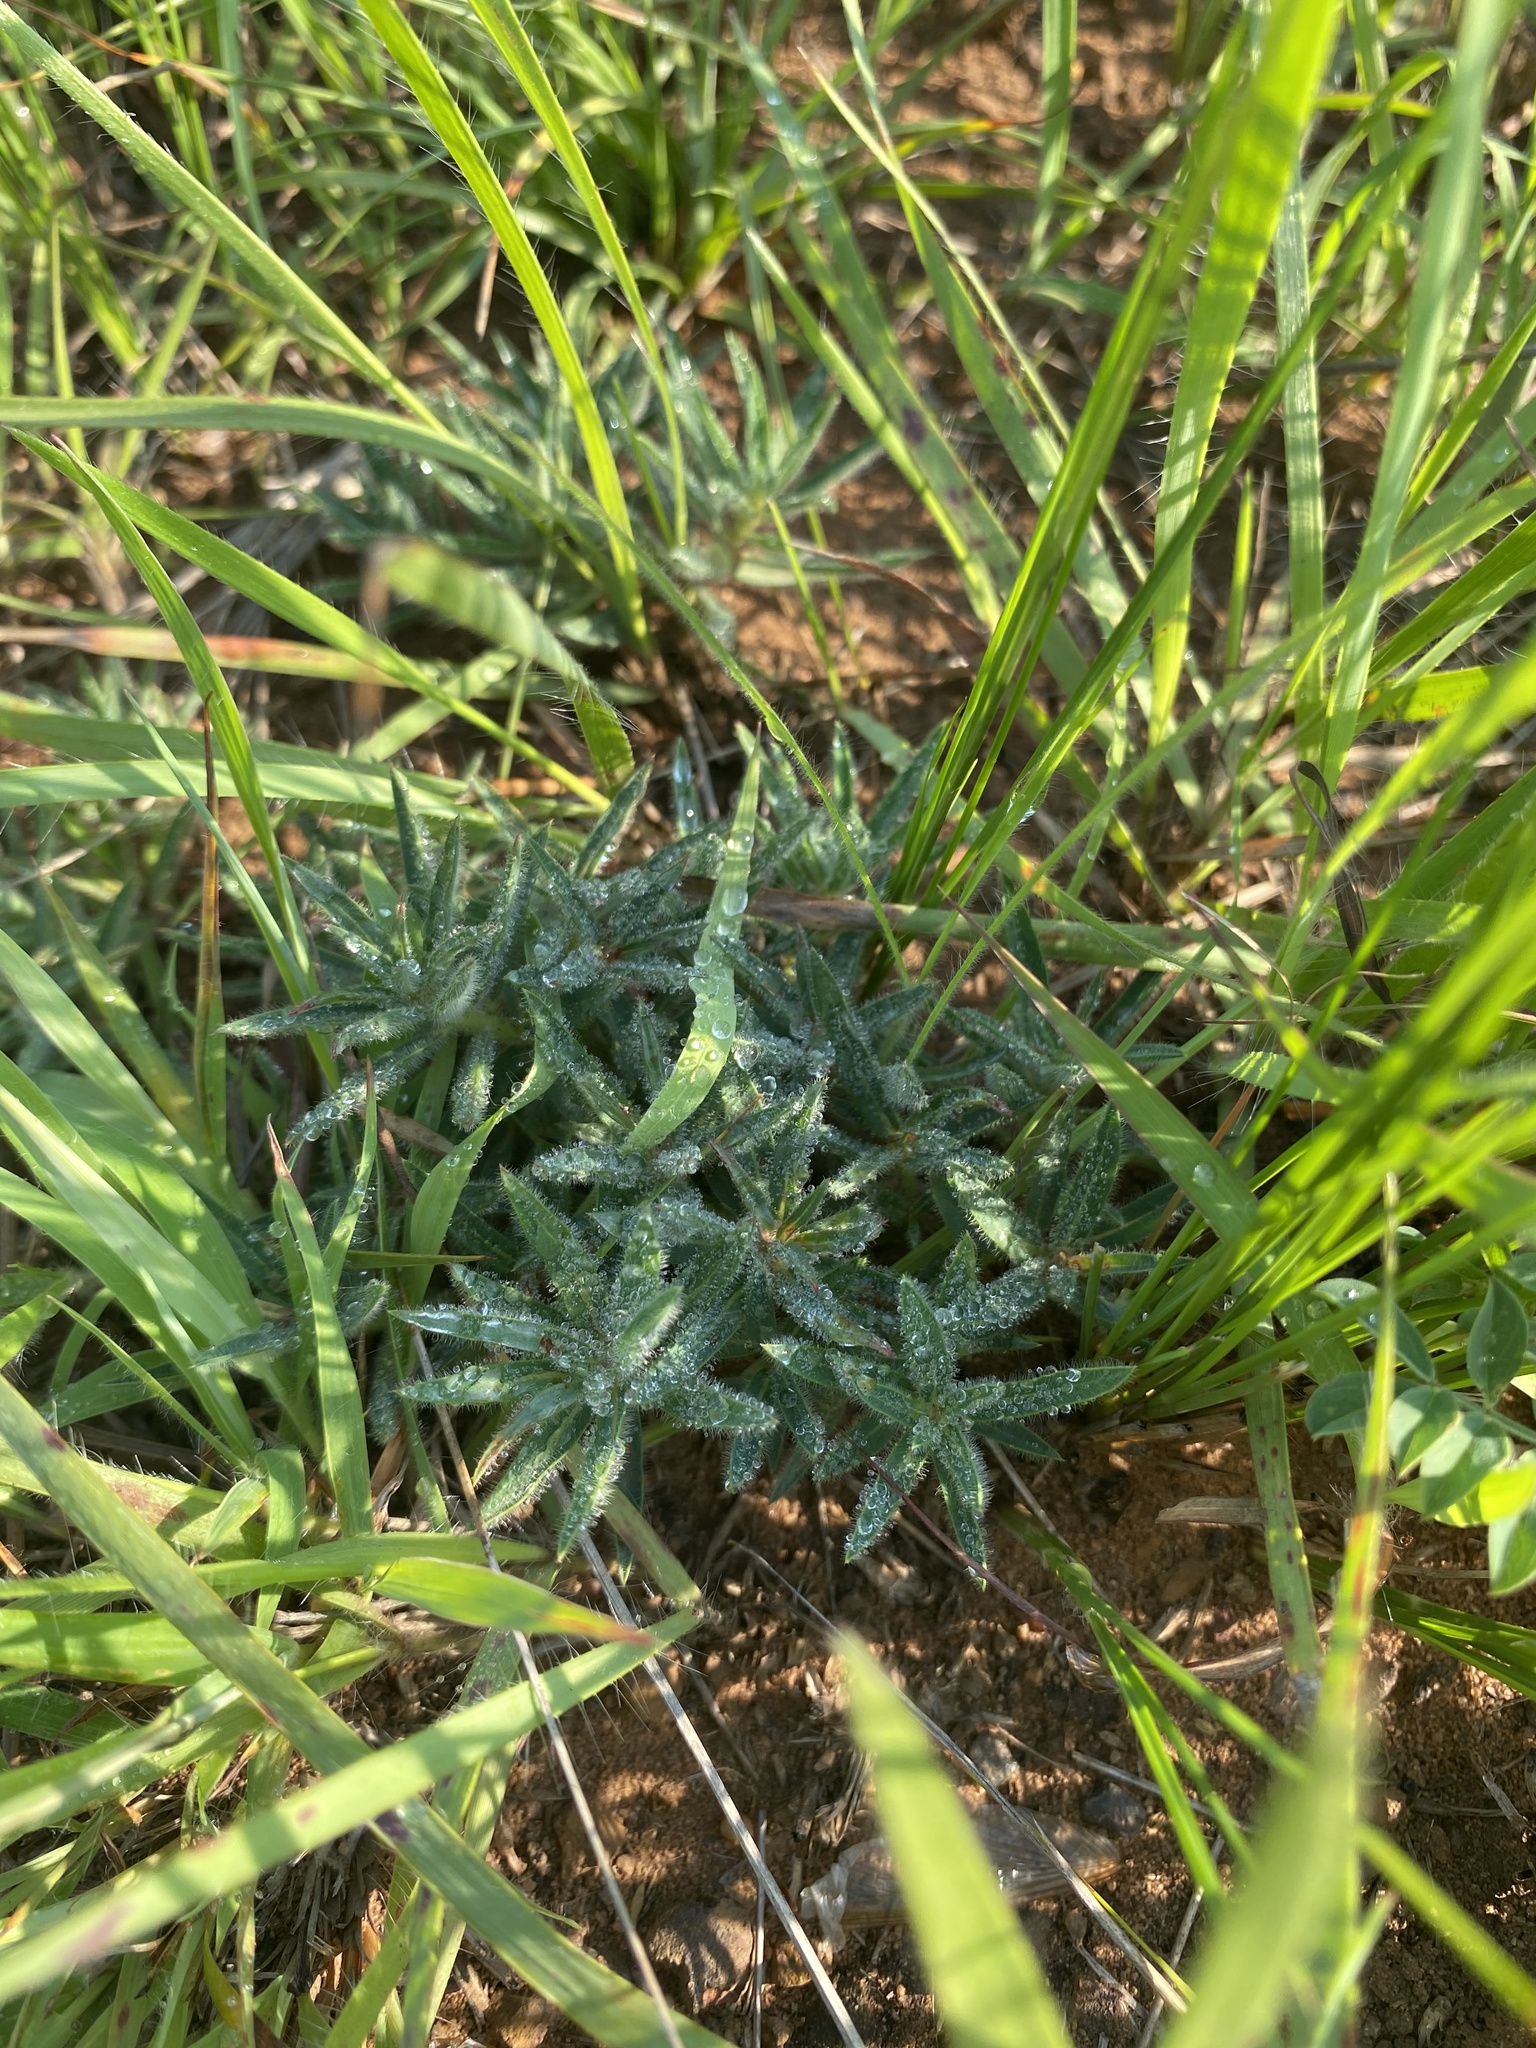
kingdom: Plantae
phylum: Tracheophyta
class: Magnoliopsida
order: Malpighiales
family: Euphorbiaceae
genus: Euphorbia
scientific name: Euphorbia gueinzii
